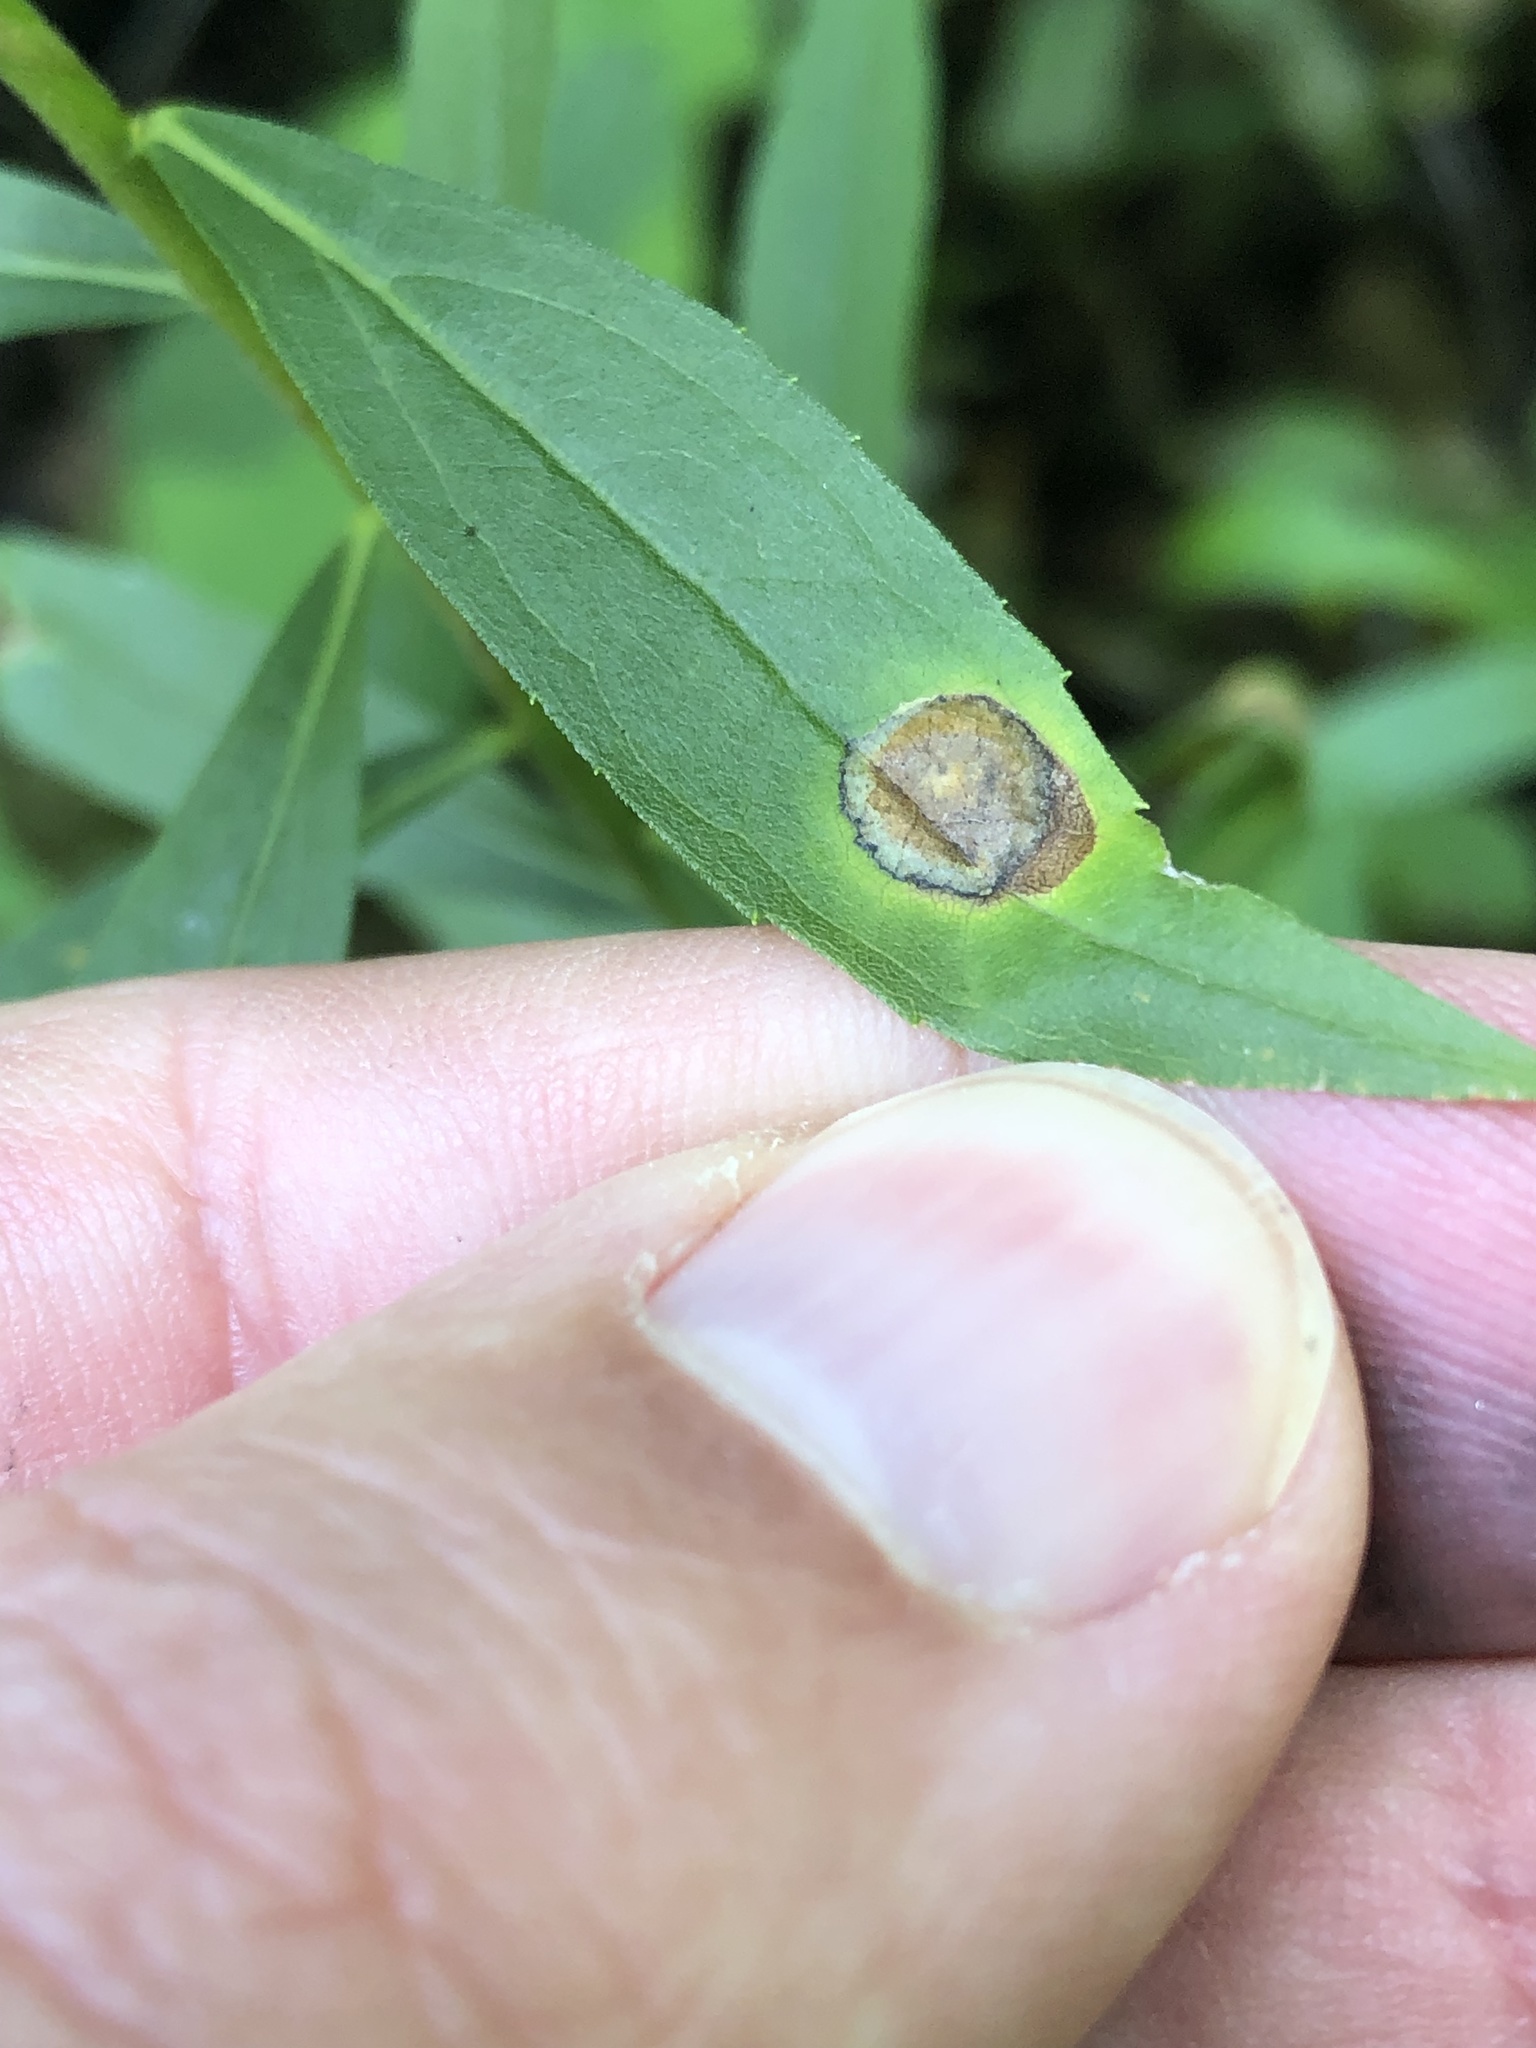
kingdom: Animalia
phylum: Arthropoda
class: Insecta
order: Diptera
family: Cecidomyiidae
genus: Asteromyia
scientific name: Asteromyia carbonifera
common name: Carbonifera goldenrod gall midge
